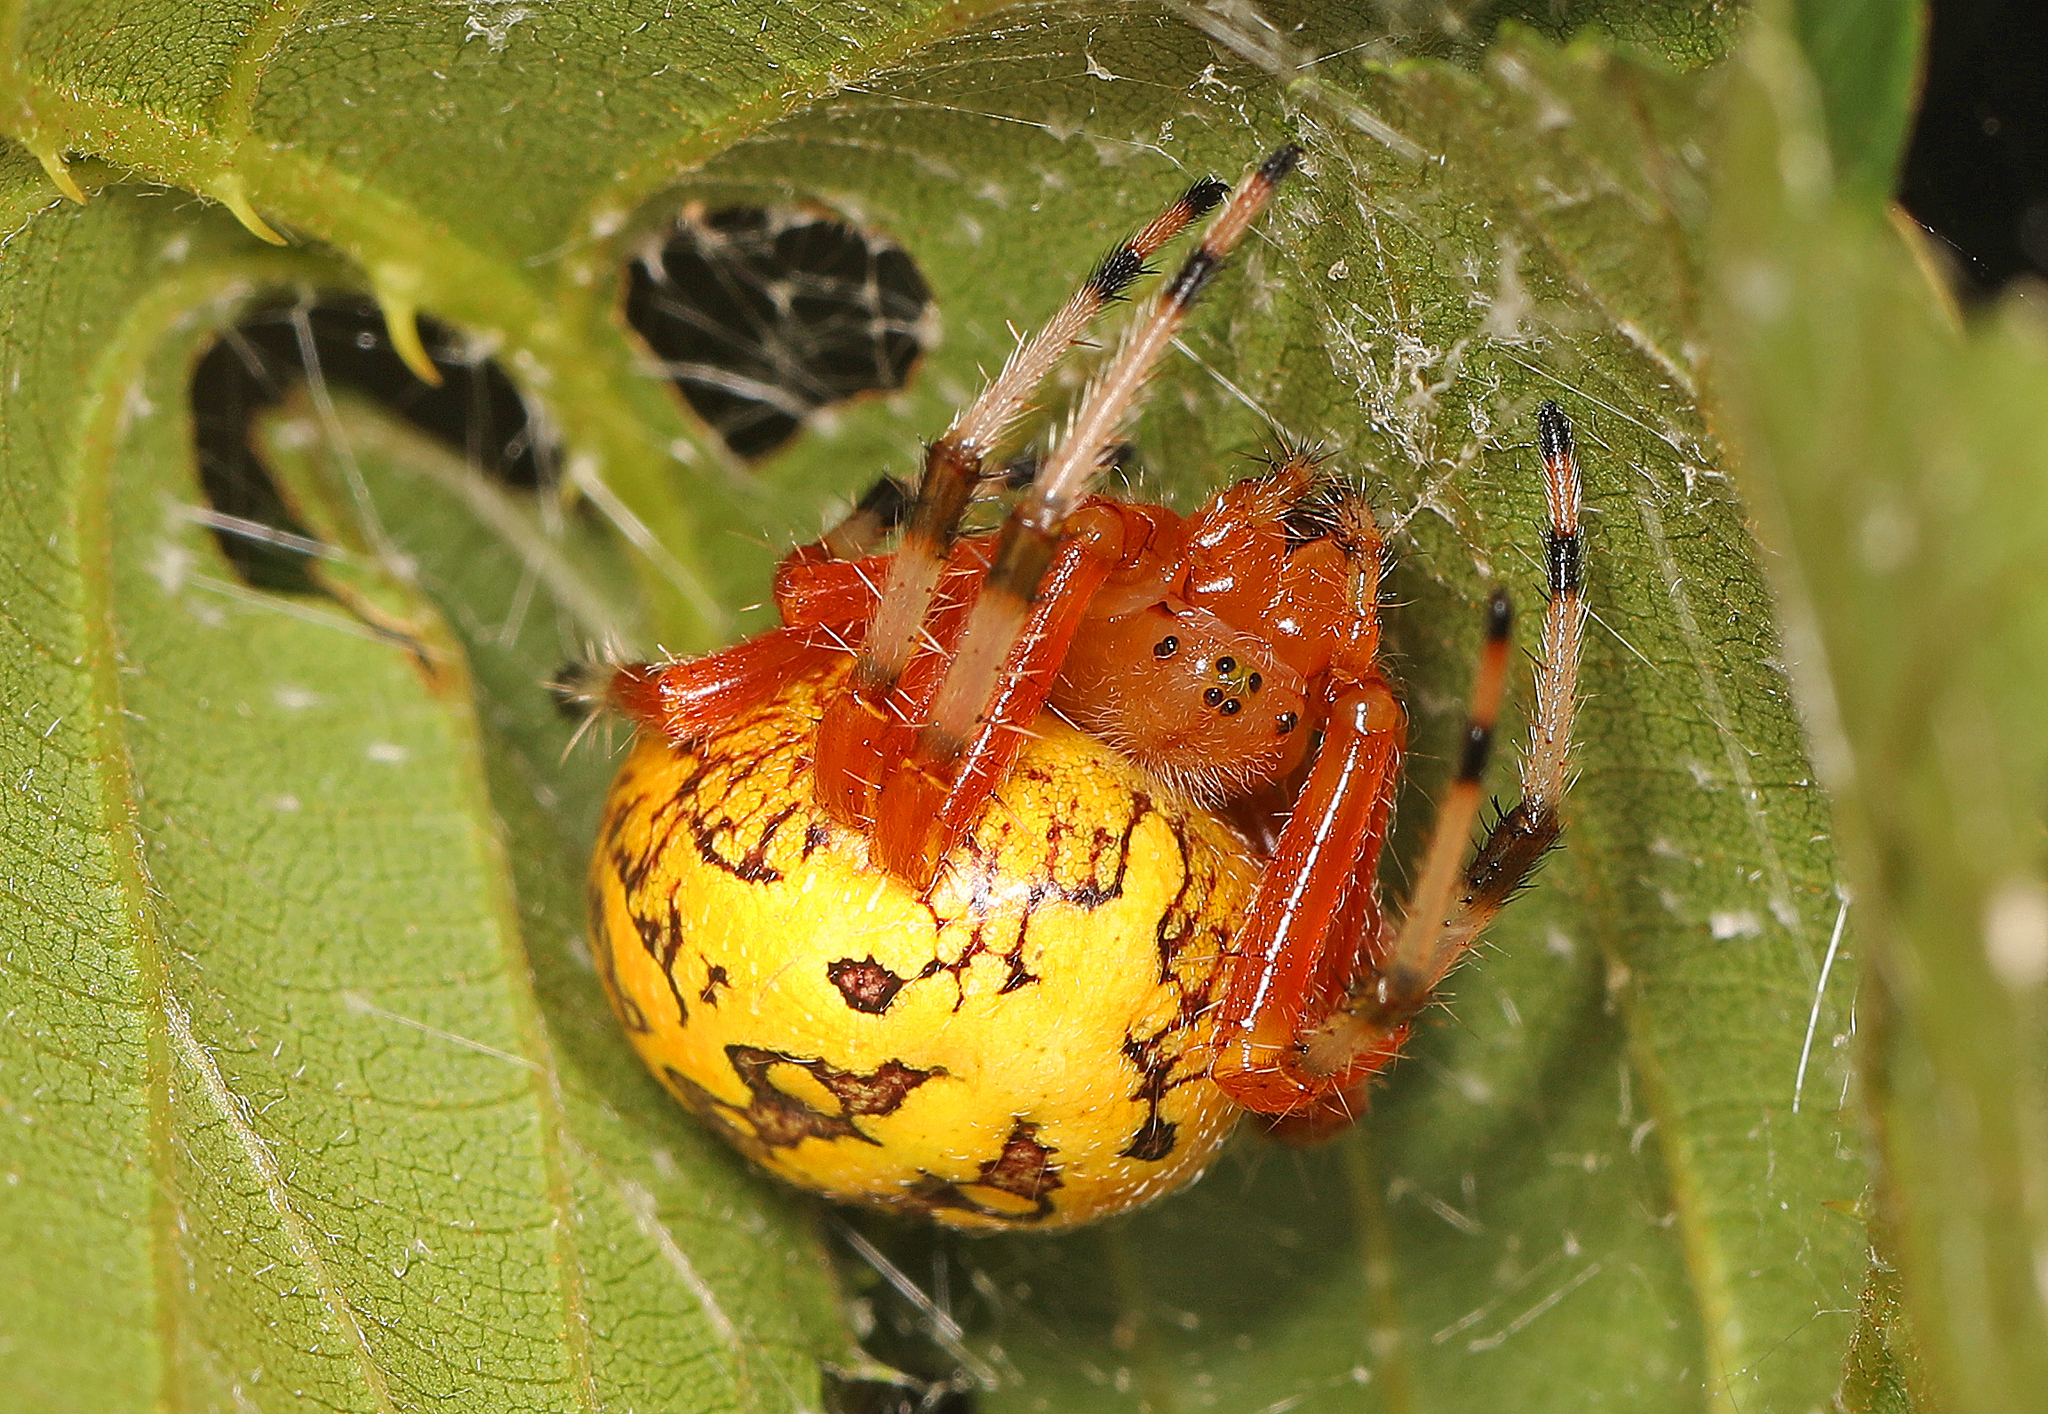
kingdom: Animalia
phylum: Arthropoda
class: Arachnida
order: Araneae
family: Araneidae
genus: Araneus
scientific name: Araneus marmoreus
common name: Marbled orbweaver
